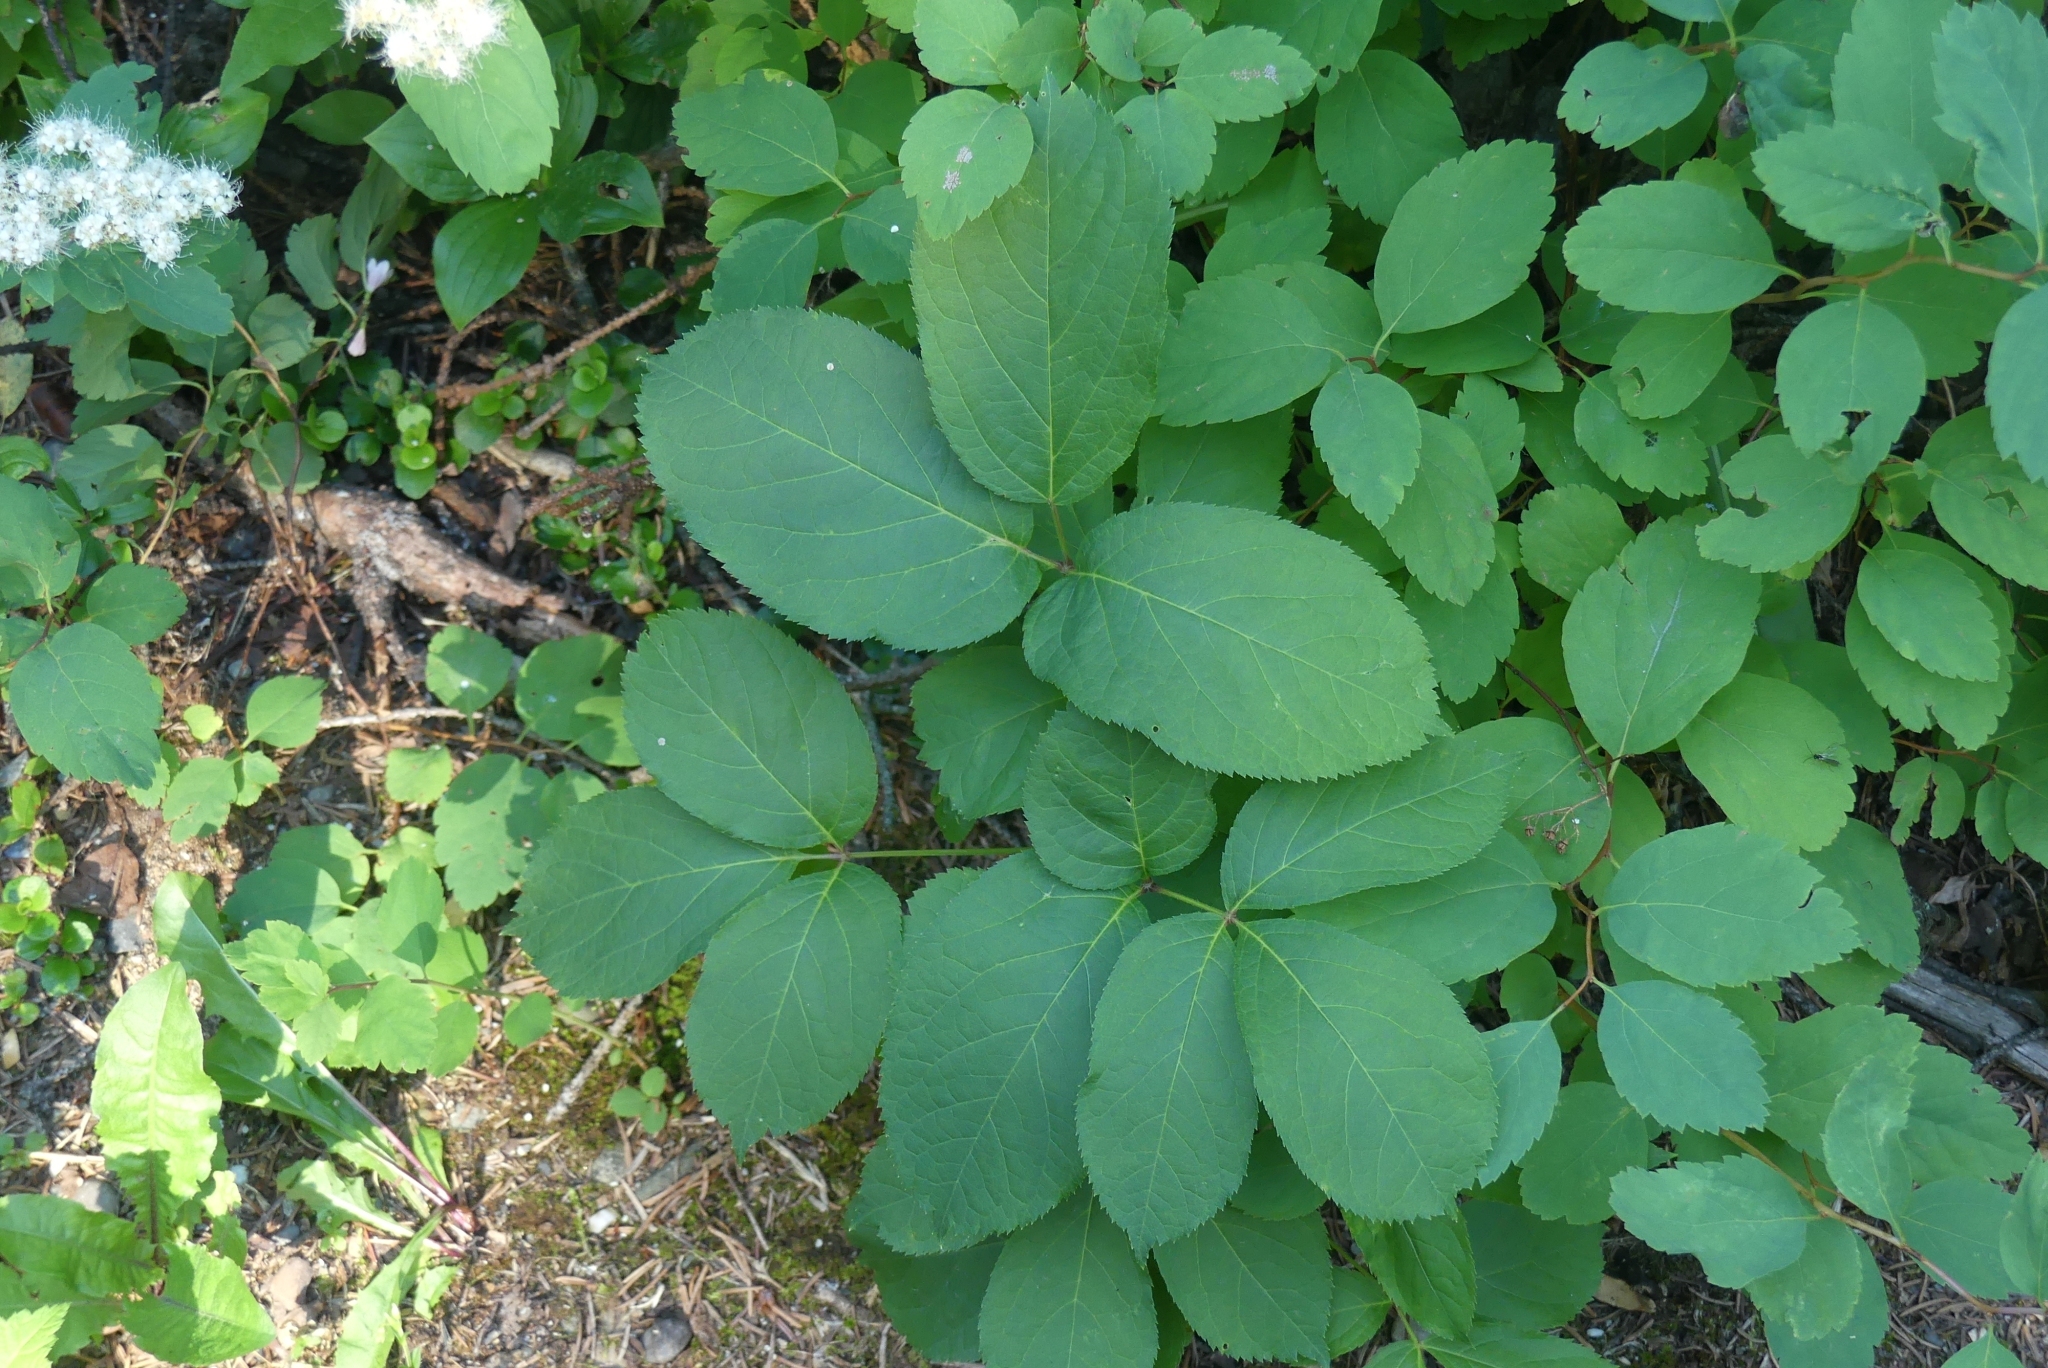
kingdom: Plantae
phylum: Tracheophyta
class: Magnoliopsida
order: Apiales
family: Araliaceae
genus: Aralia
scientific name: Aralia nudicaulis
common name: Wild sarsaparilla
